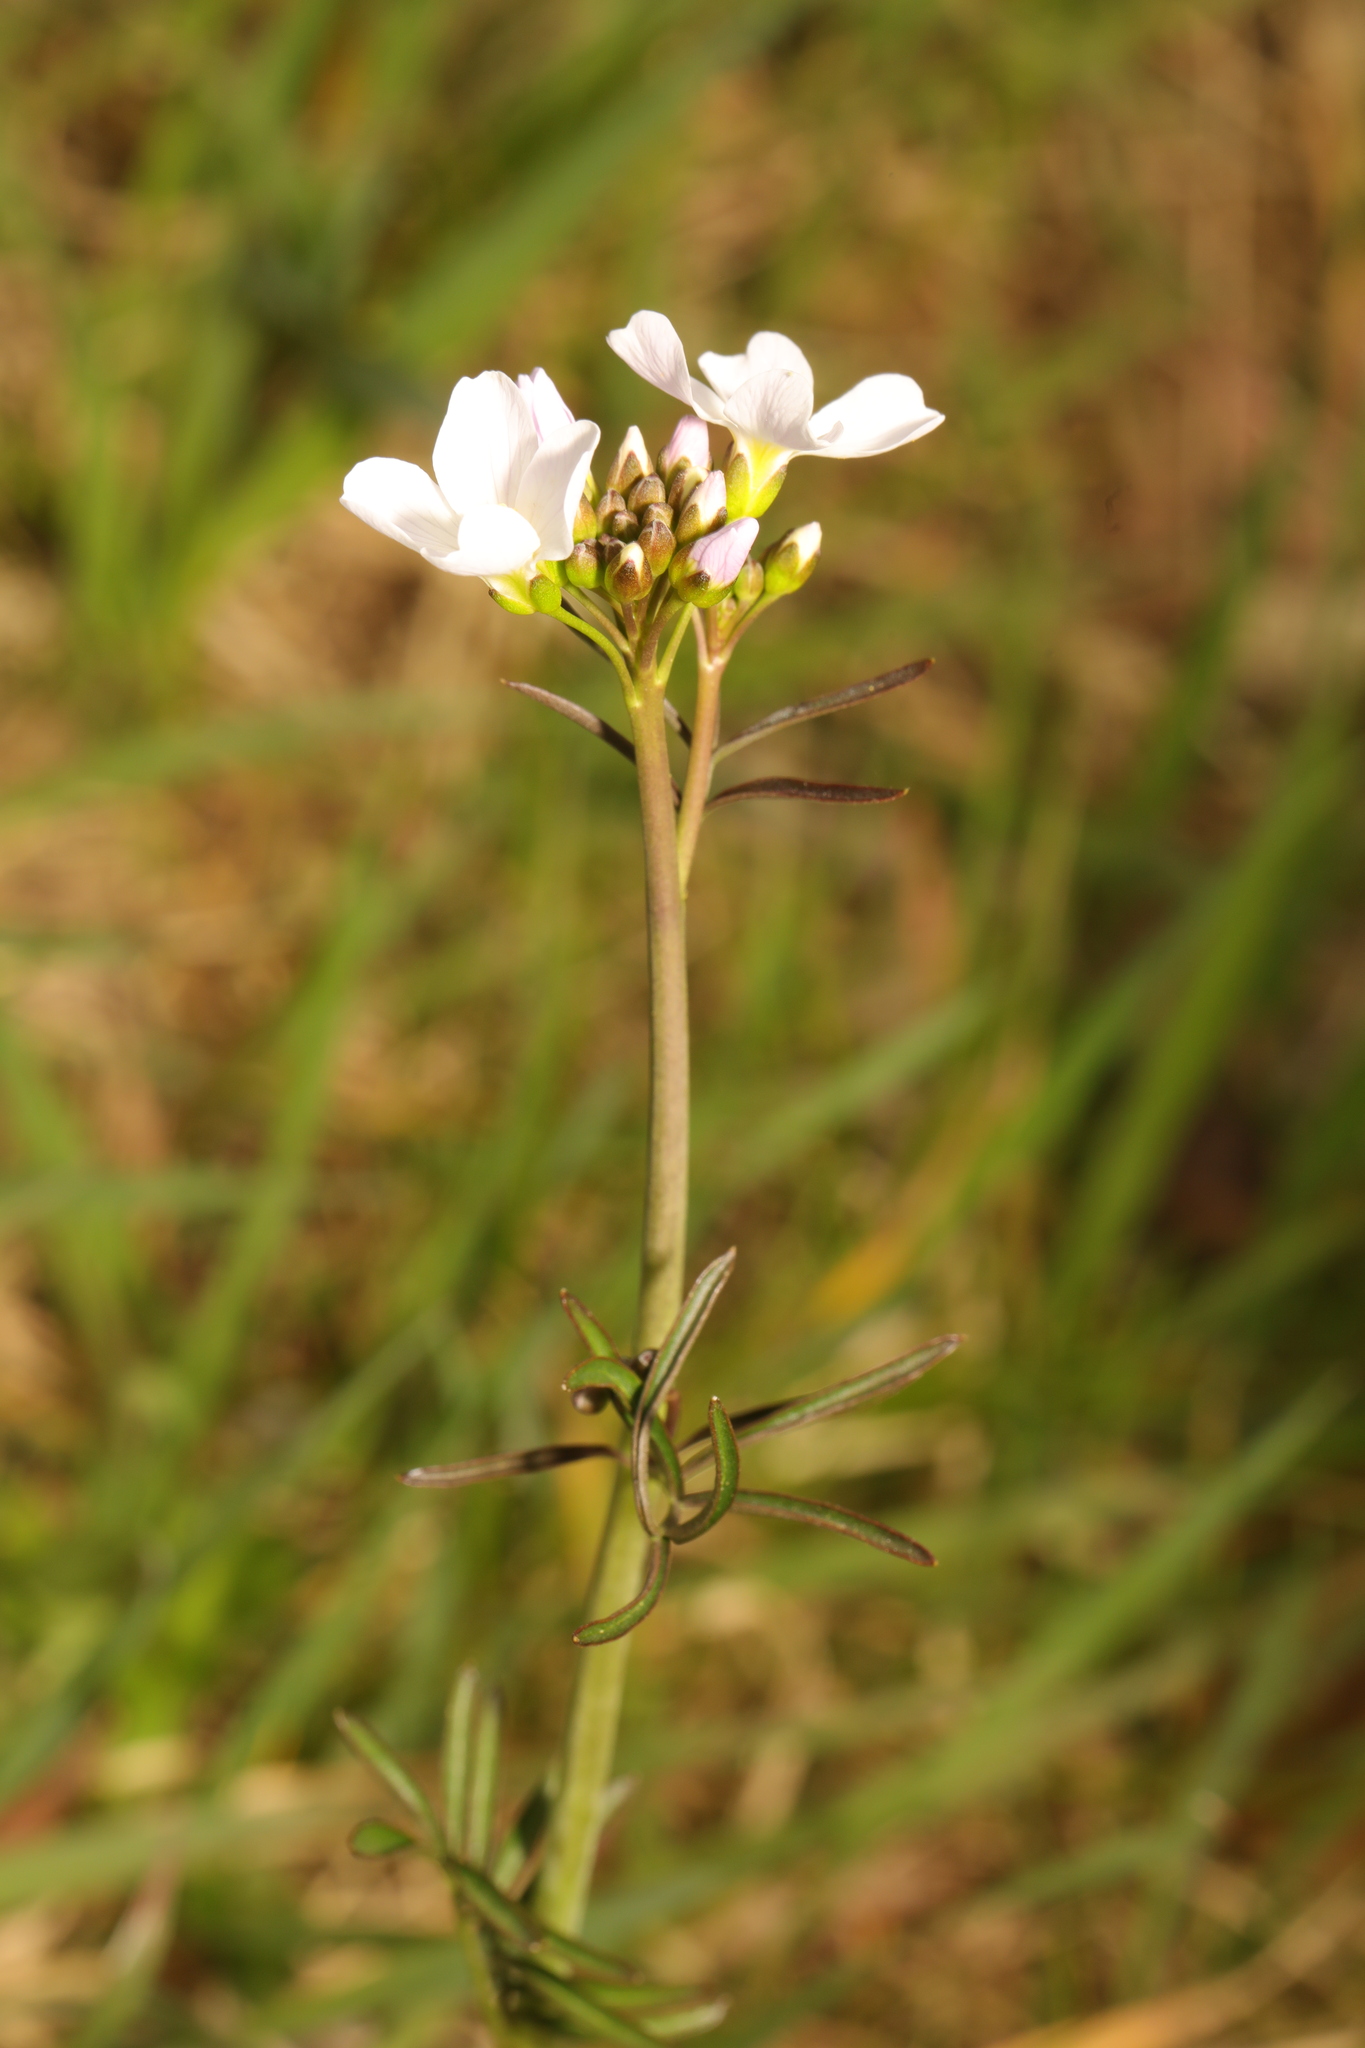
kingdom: Plantae
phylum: Tracheophyta
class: Magnoliopsida
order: Brassicales
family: Brassicaceae
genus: Cardamine
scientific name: Cardamine pratensis
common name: Cuckoo flower
